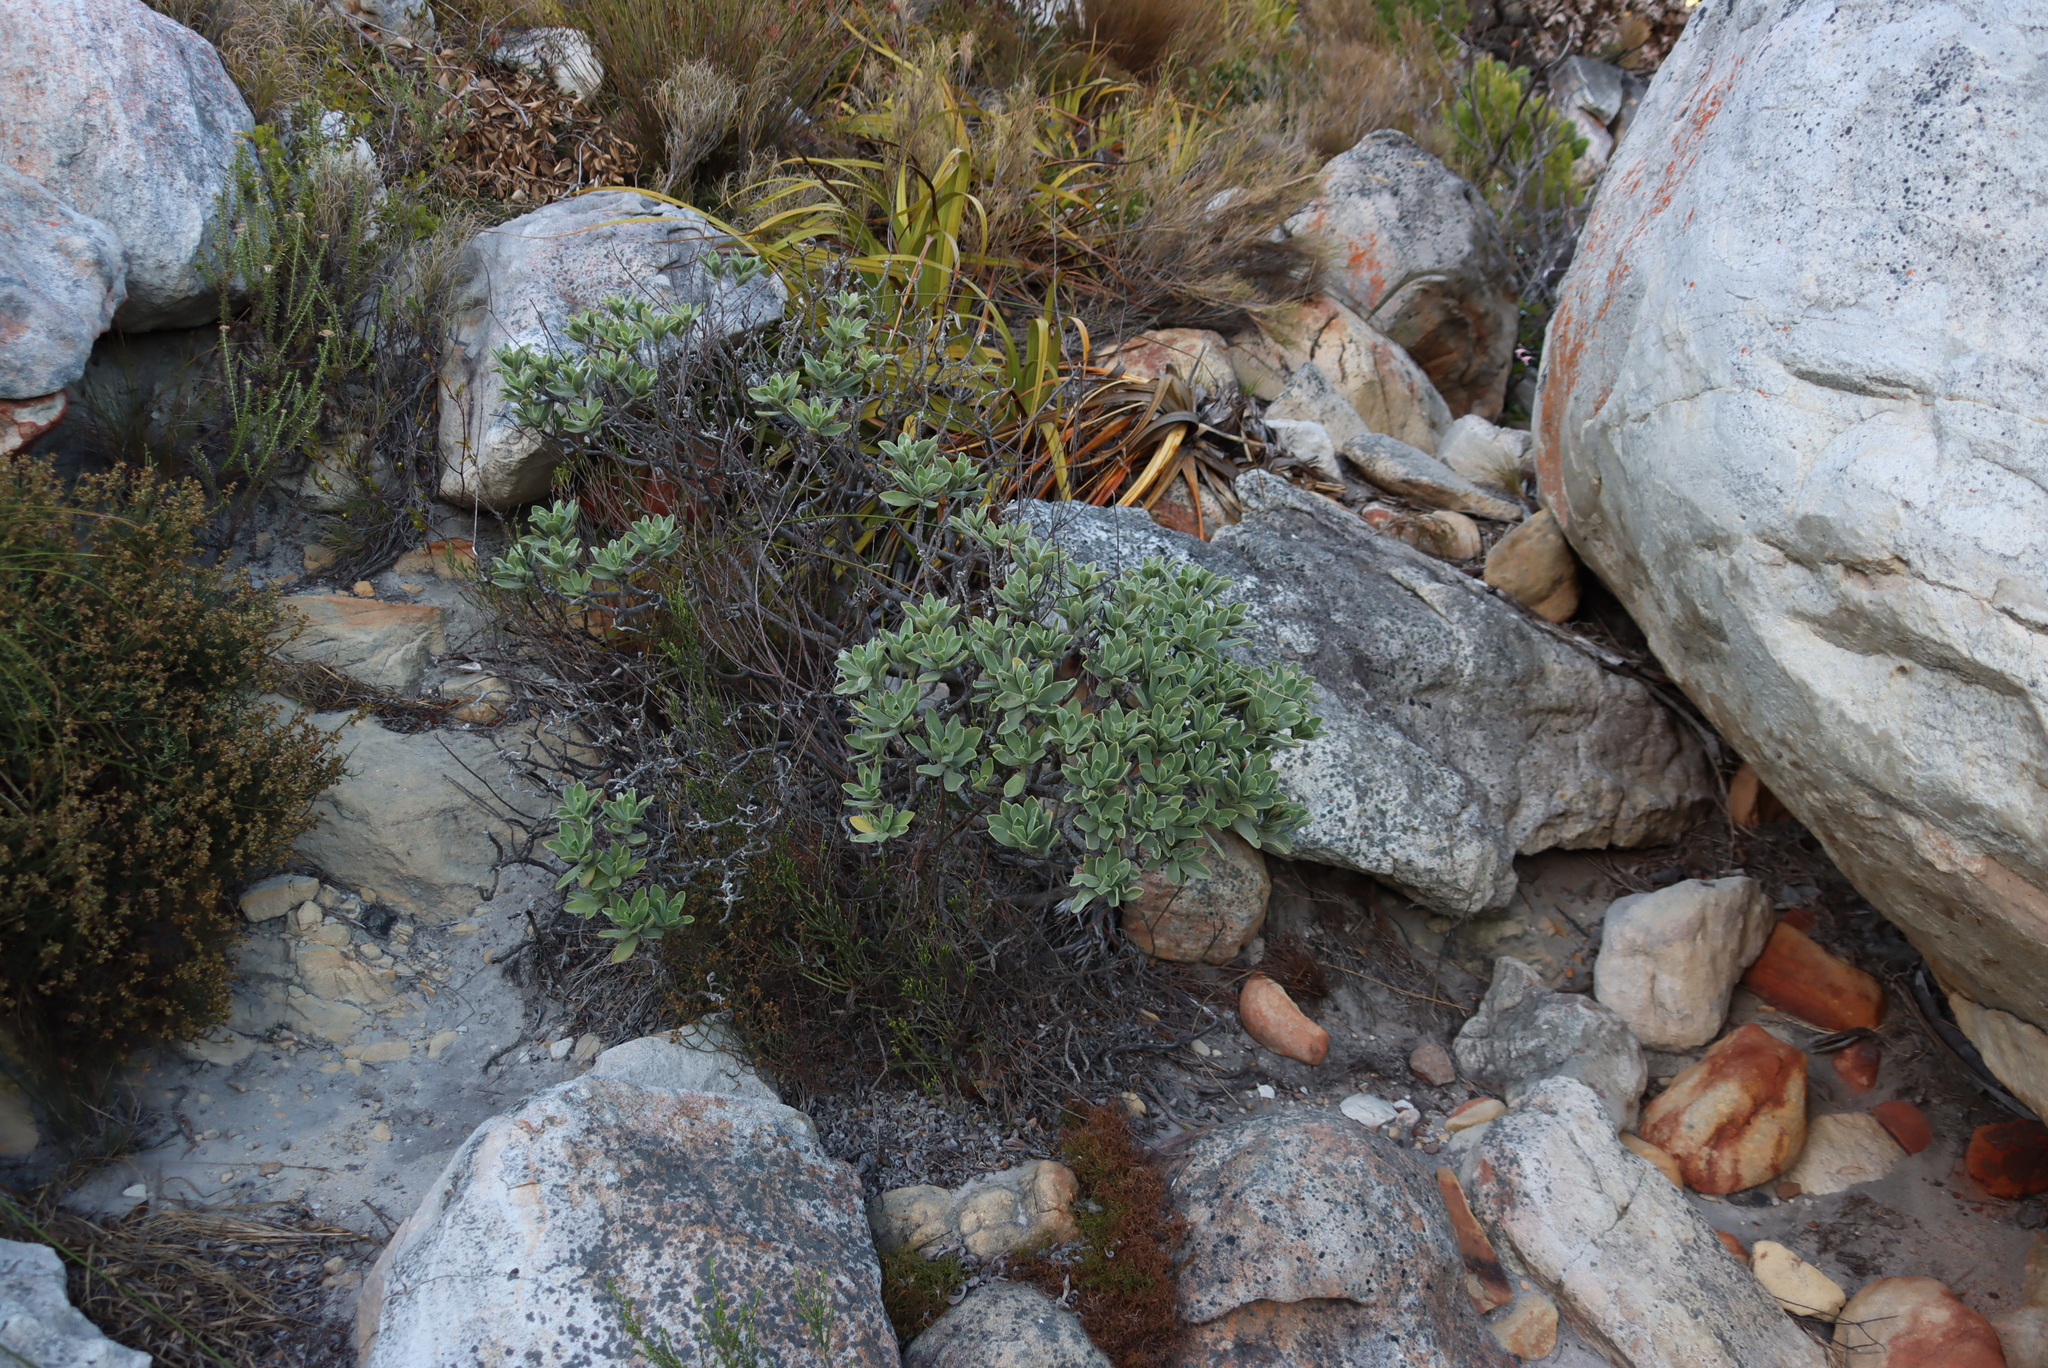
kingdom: Plantae
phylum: Tracheophyta
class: Magnoliopsida
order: Boraginales
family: Boraginaceae
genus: Lobostemon
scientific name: Lobostemon montanus
